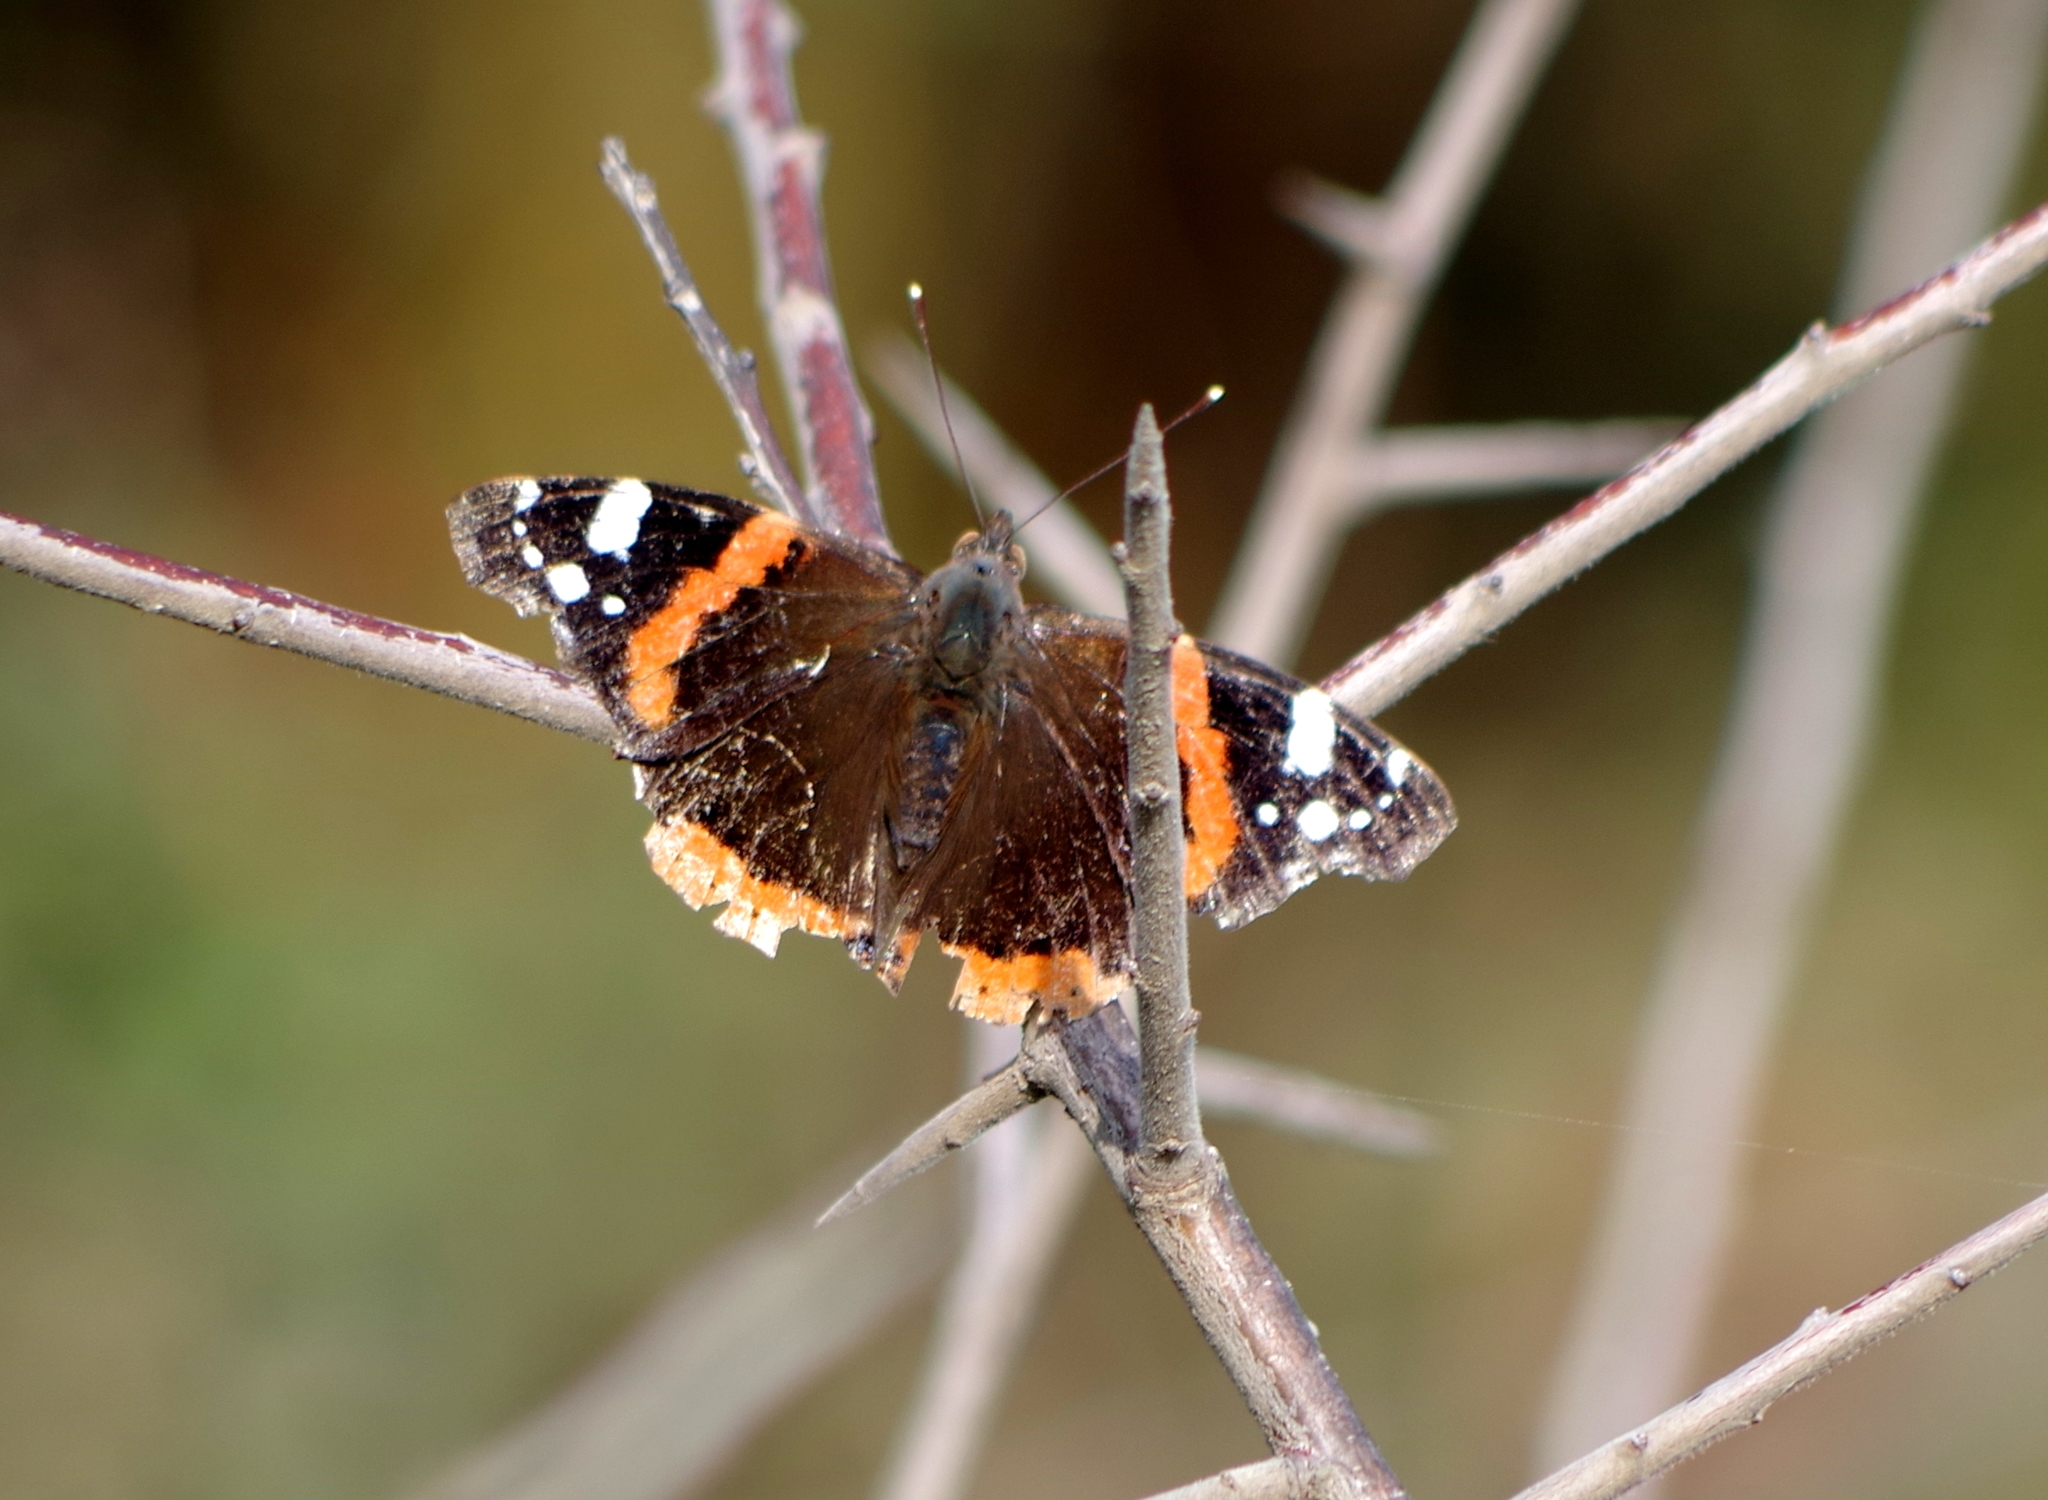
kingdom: Animalia
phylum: Arthropoda
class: Insecta
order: Lepidoptera
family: Nymphalidae
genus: Vanessa
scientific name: Vanessa atalanta
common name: Red admiral
